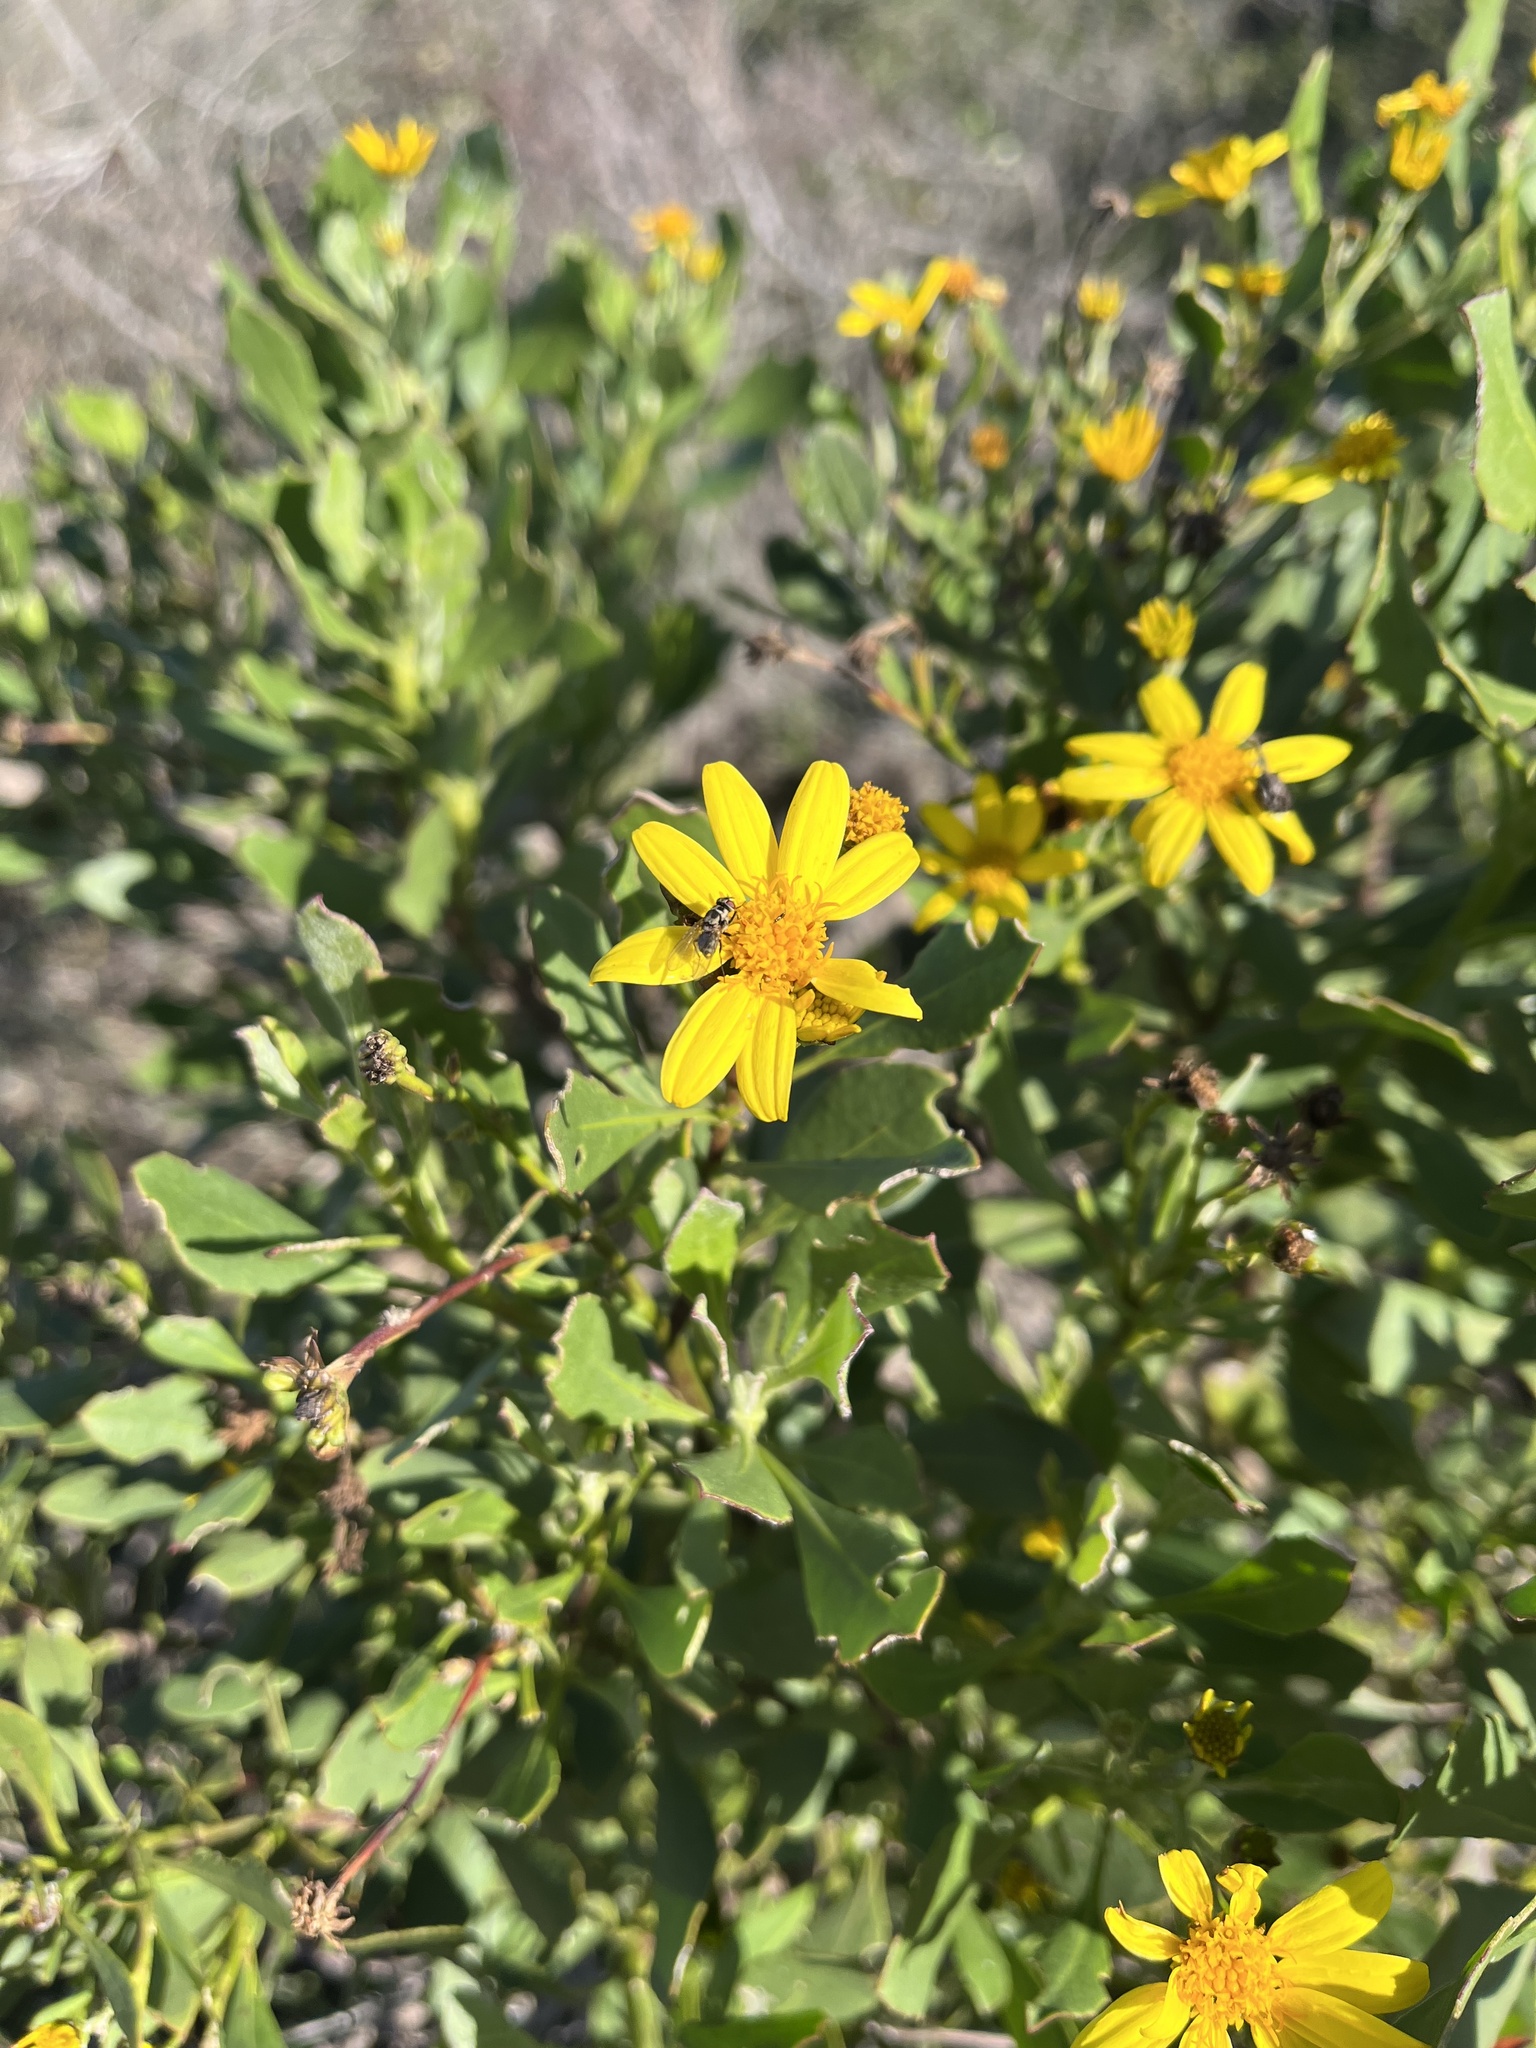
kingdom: Plantae
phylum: Tracheophyta
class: Magnoliopsida
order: Asterales
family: Asteraceae
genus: Osteospermum
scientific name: Osteospermum moniliferum
